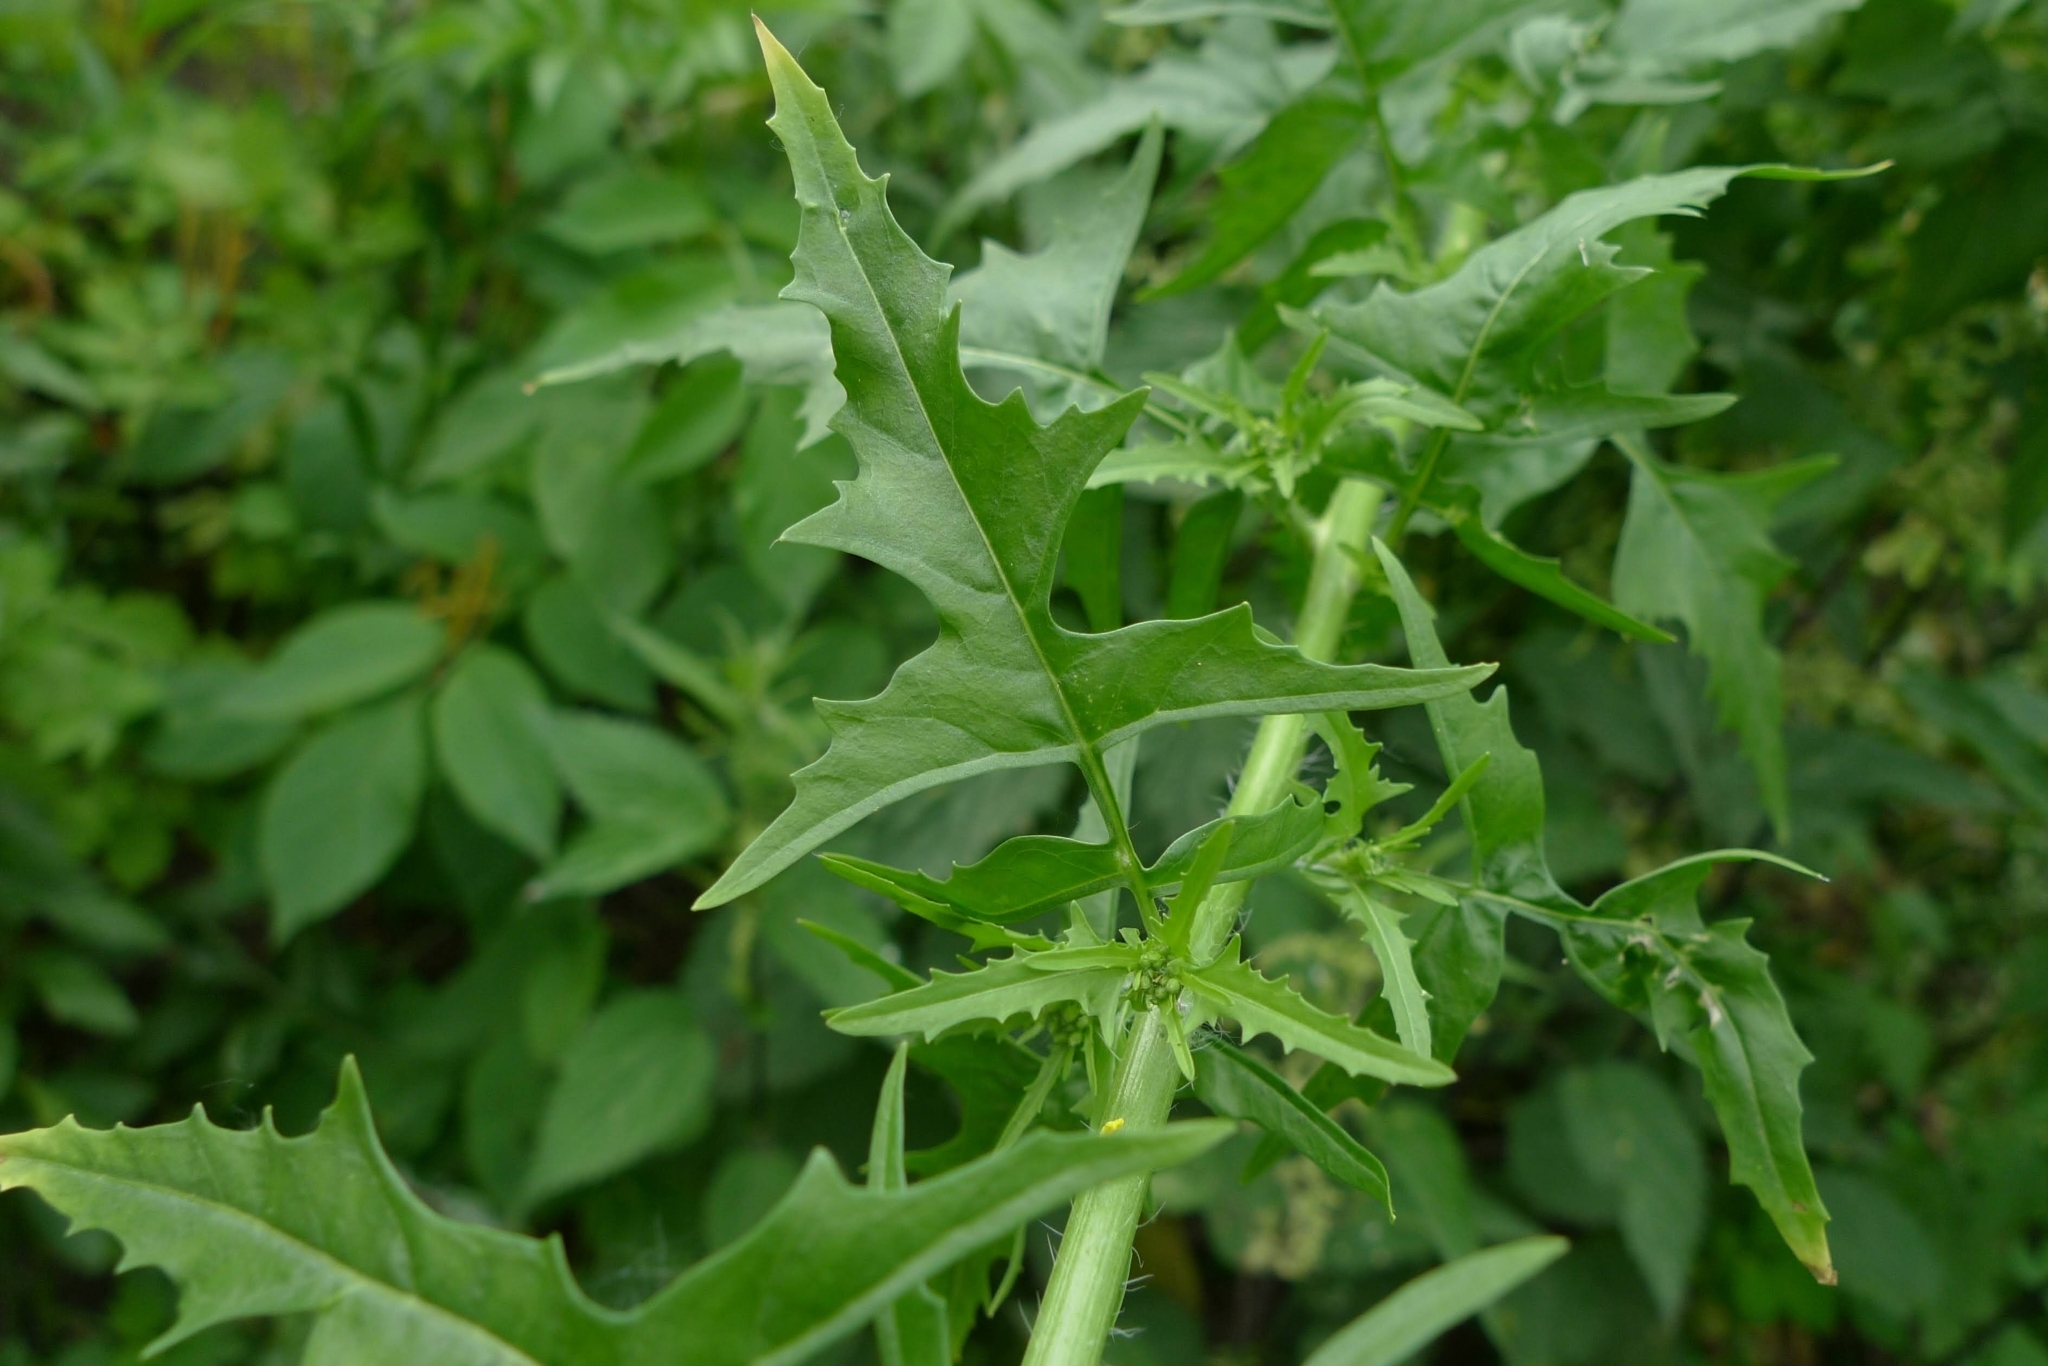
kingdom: Plantae
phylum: Tracheophyta
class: Magnoliopsida
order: Brassicales
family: Brassicaceae
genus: Sisymbrium
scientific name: Sisymbrium loeselii
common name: False london-rocket
